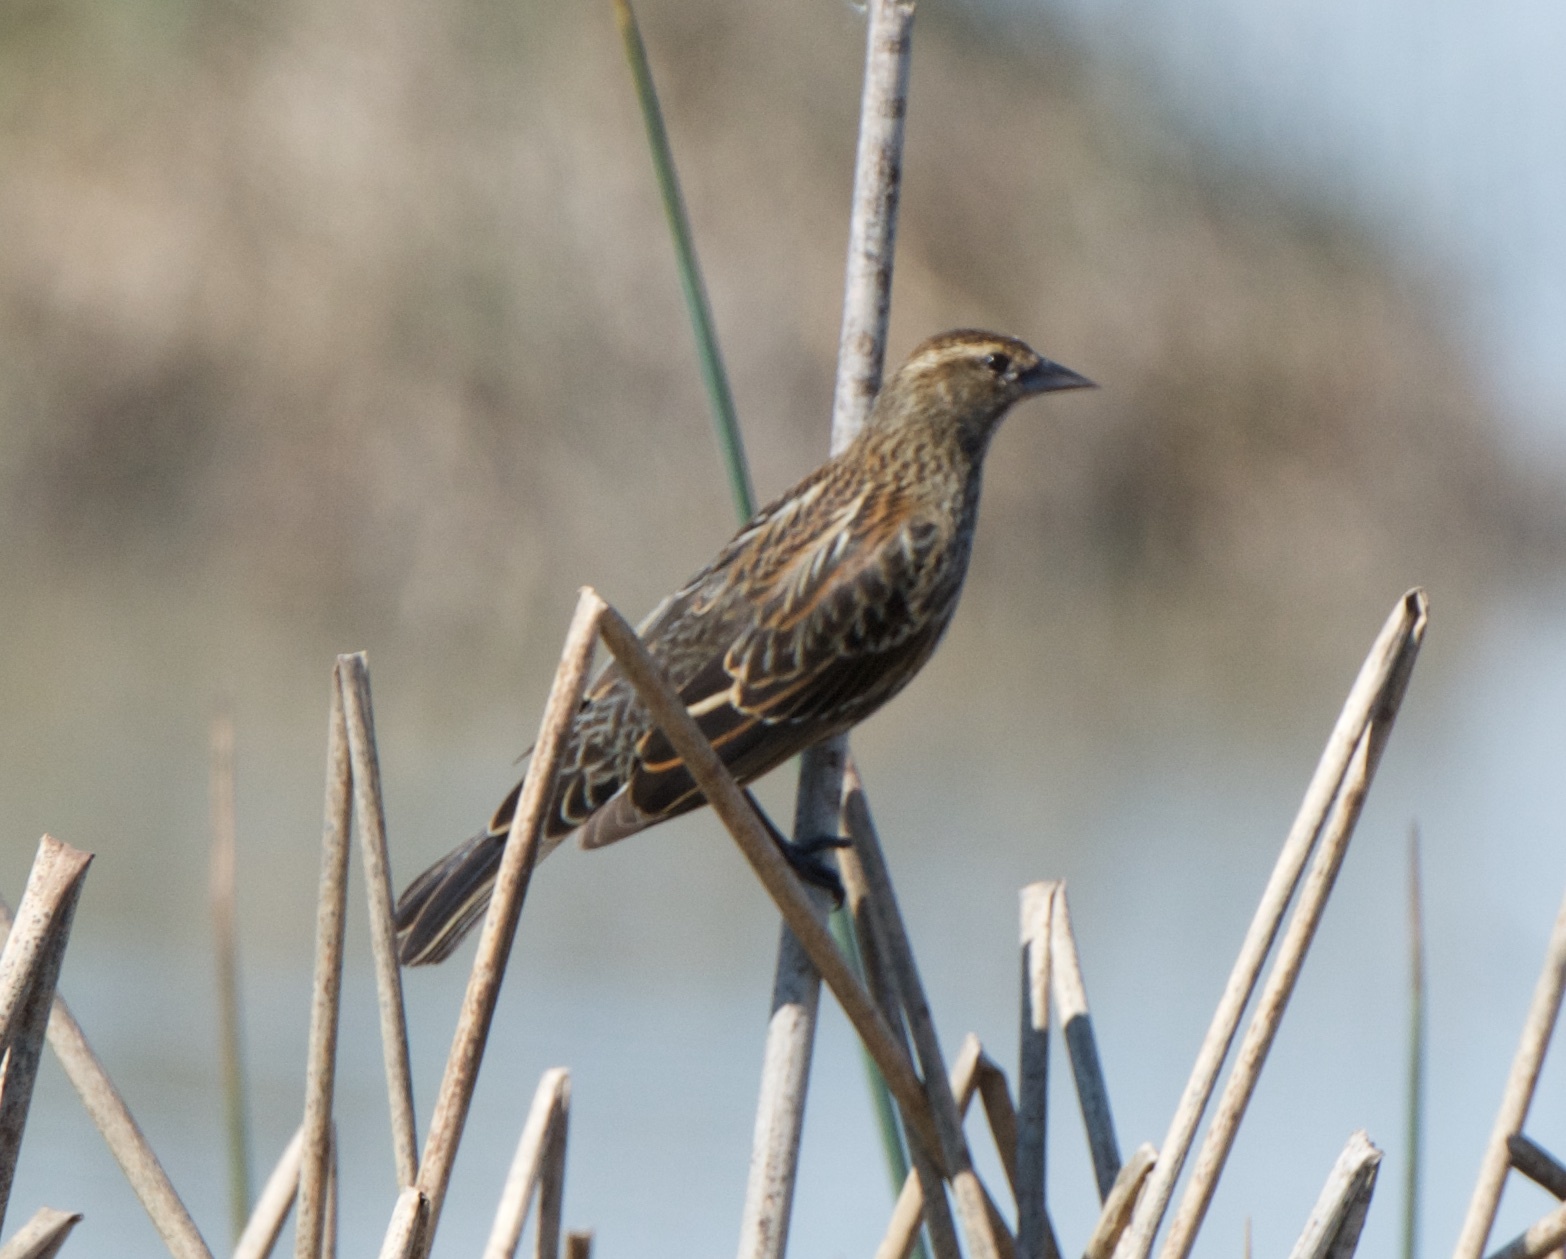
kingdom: Animalia
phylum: Chordata
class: Aves
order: Passeriformes
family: Icteridae
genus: Agelaius
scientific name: Agelaius phoeniceus
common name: Red-winged blackbird
